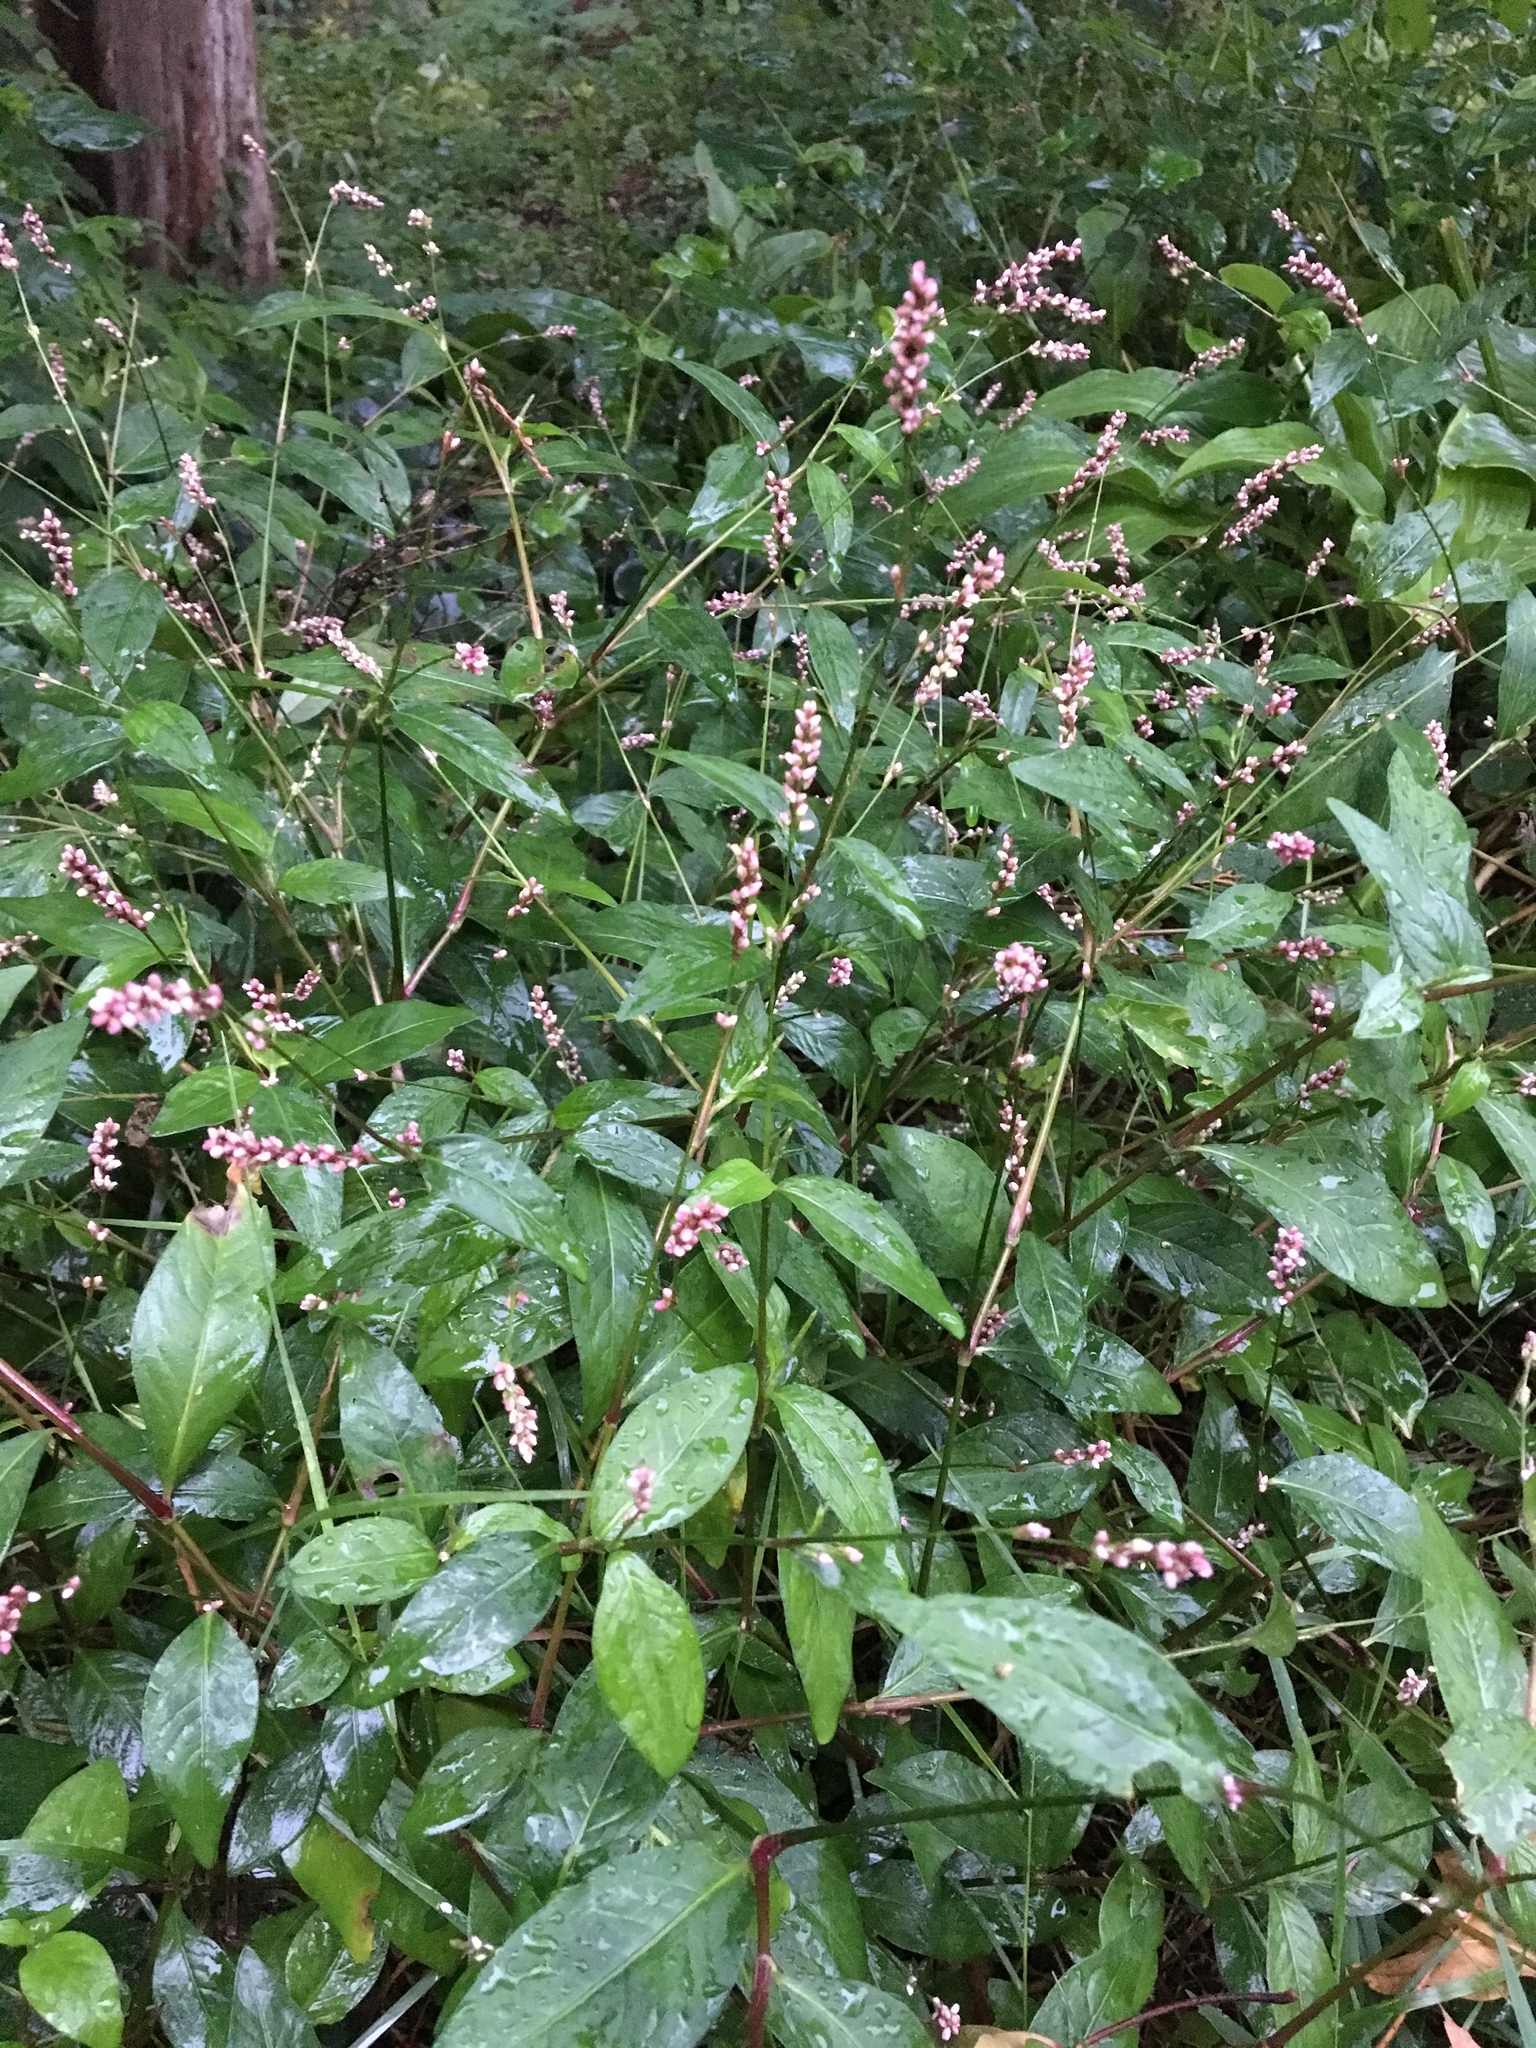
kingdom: Plantae
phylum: Tracheophyta
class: Magnoliopsida
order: Caryophyllales
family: Polygonaceae
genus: Persicaria
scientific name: Persicaria longiseta
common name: Bristly lady's-thumb
